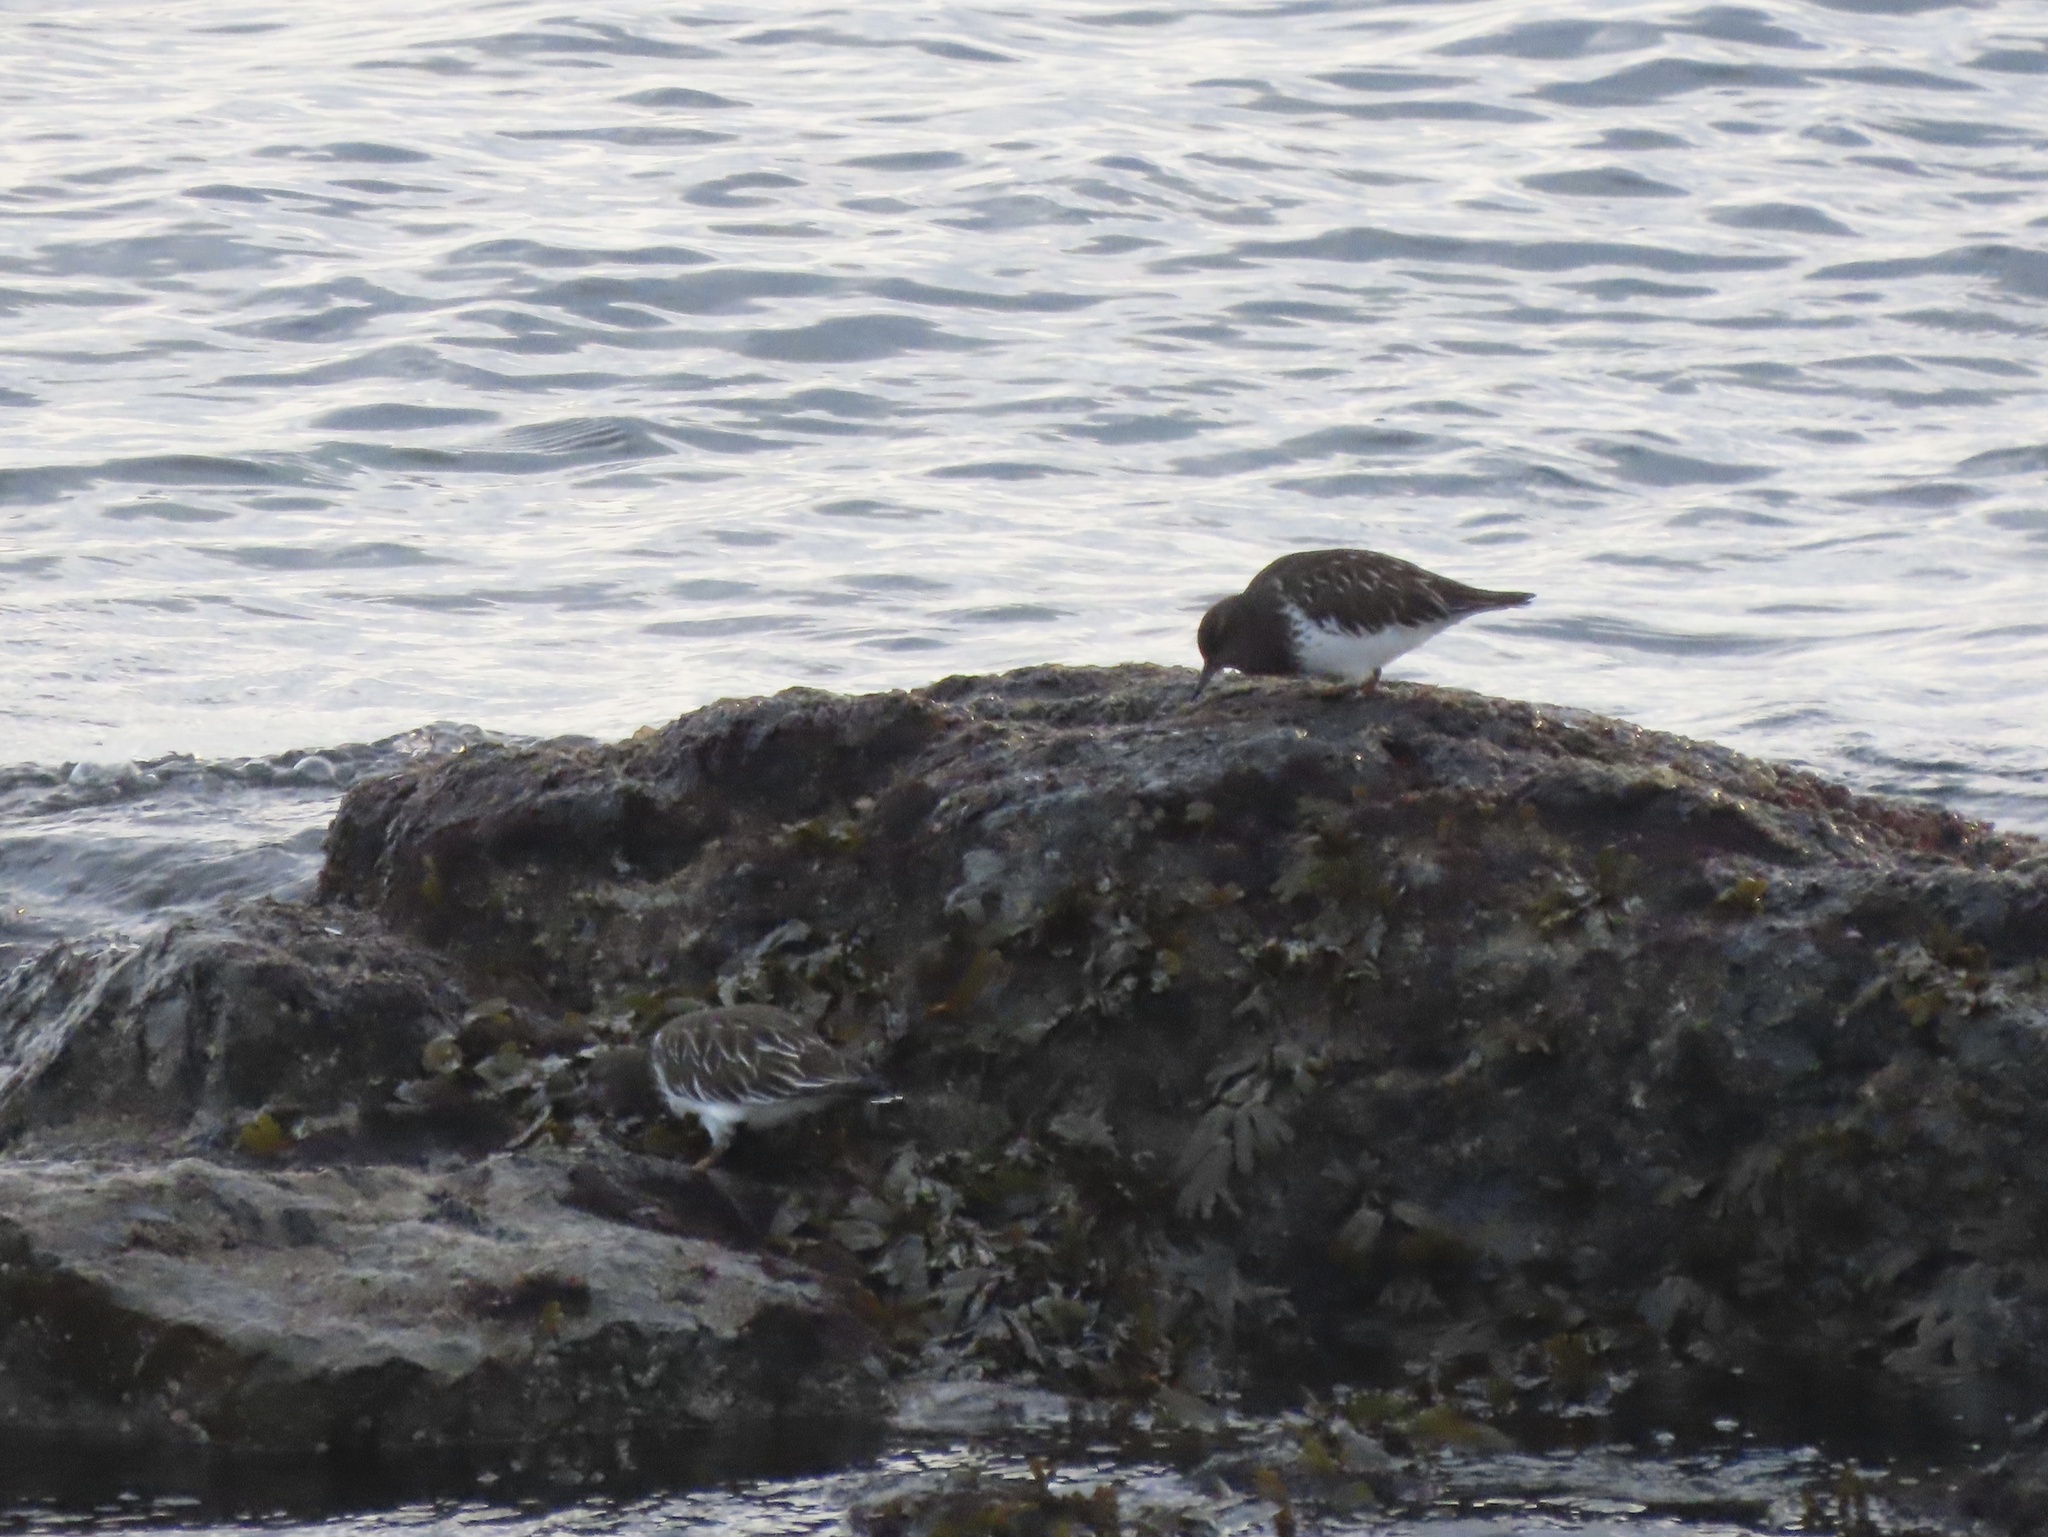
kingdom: Animalia
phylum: Chordata
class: Aves
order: Charadriiformes
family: Scolopacidae
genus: Arenaria
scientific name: Arenaria melanocephala
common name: Black turnstone
